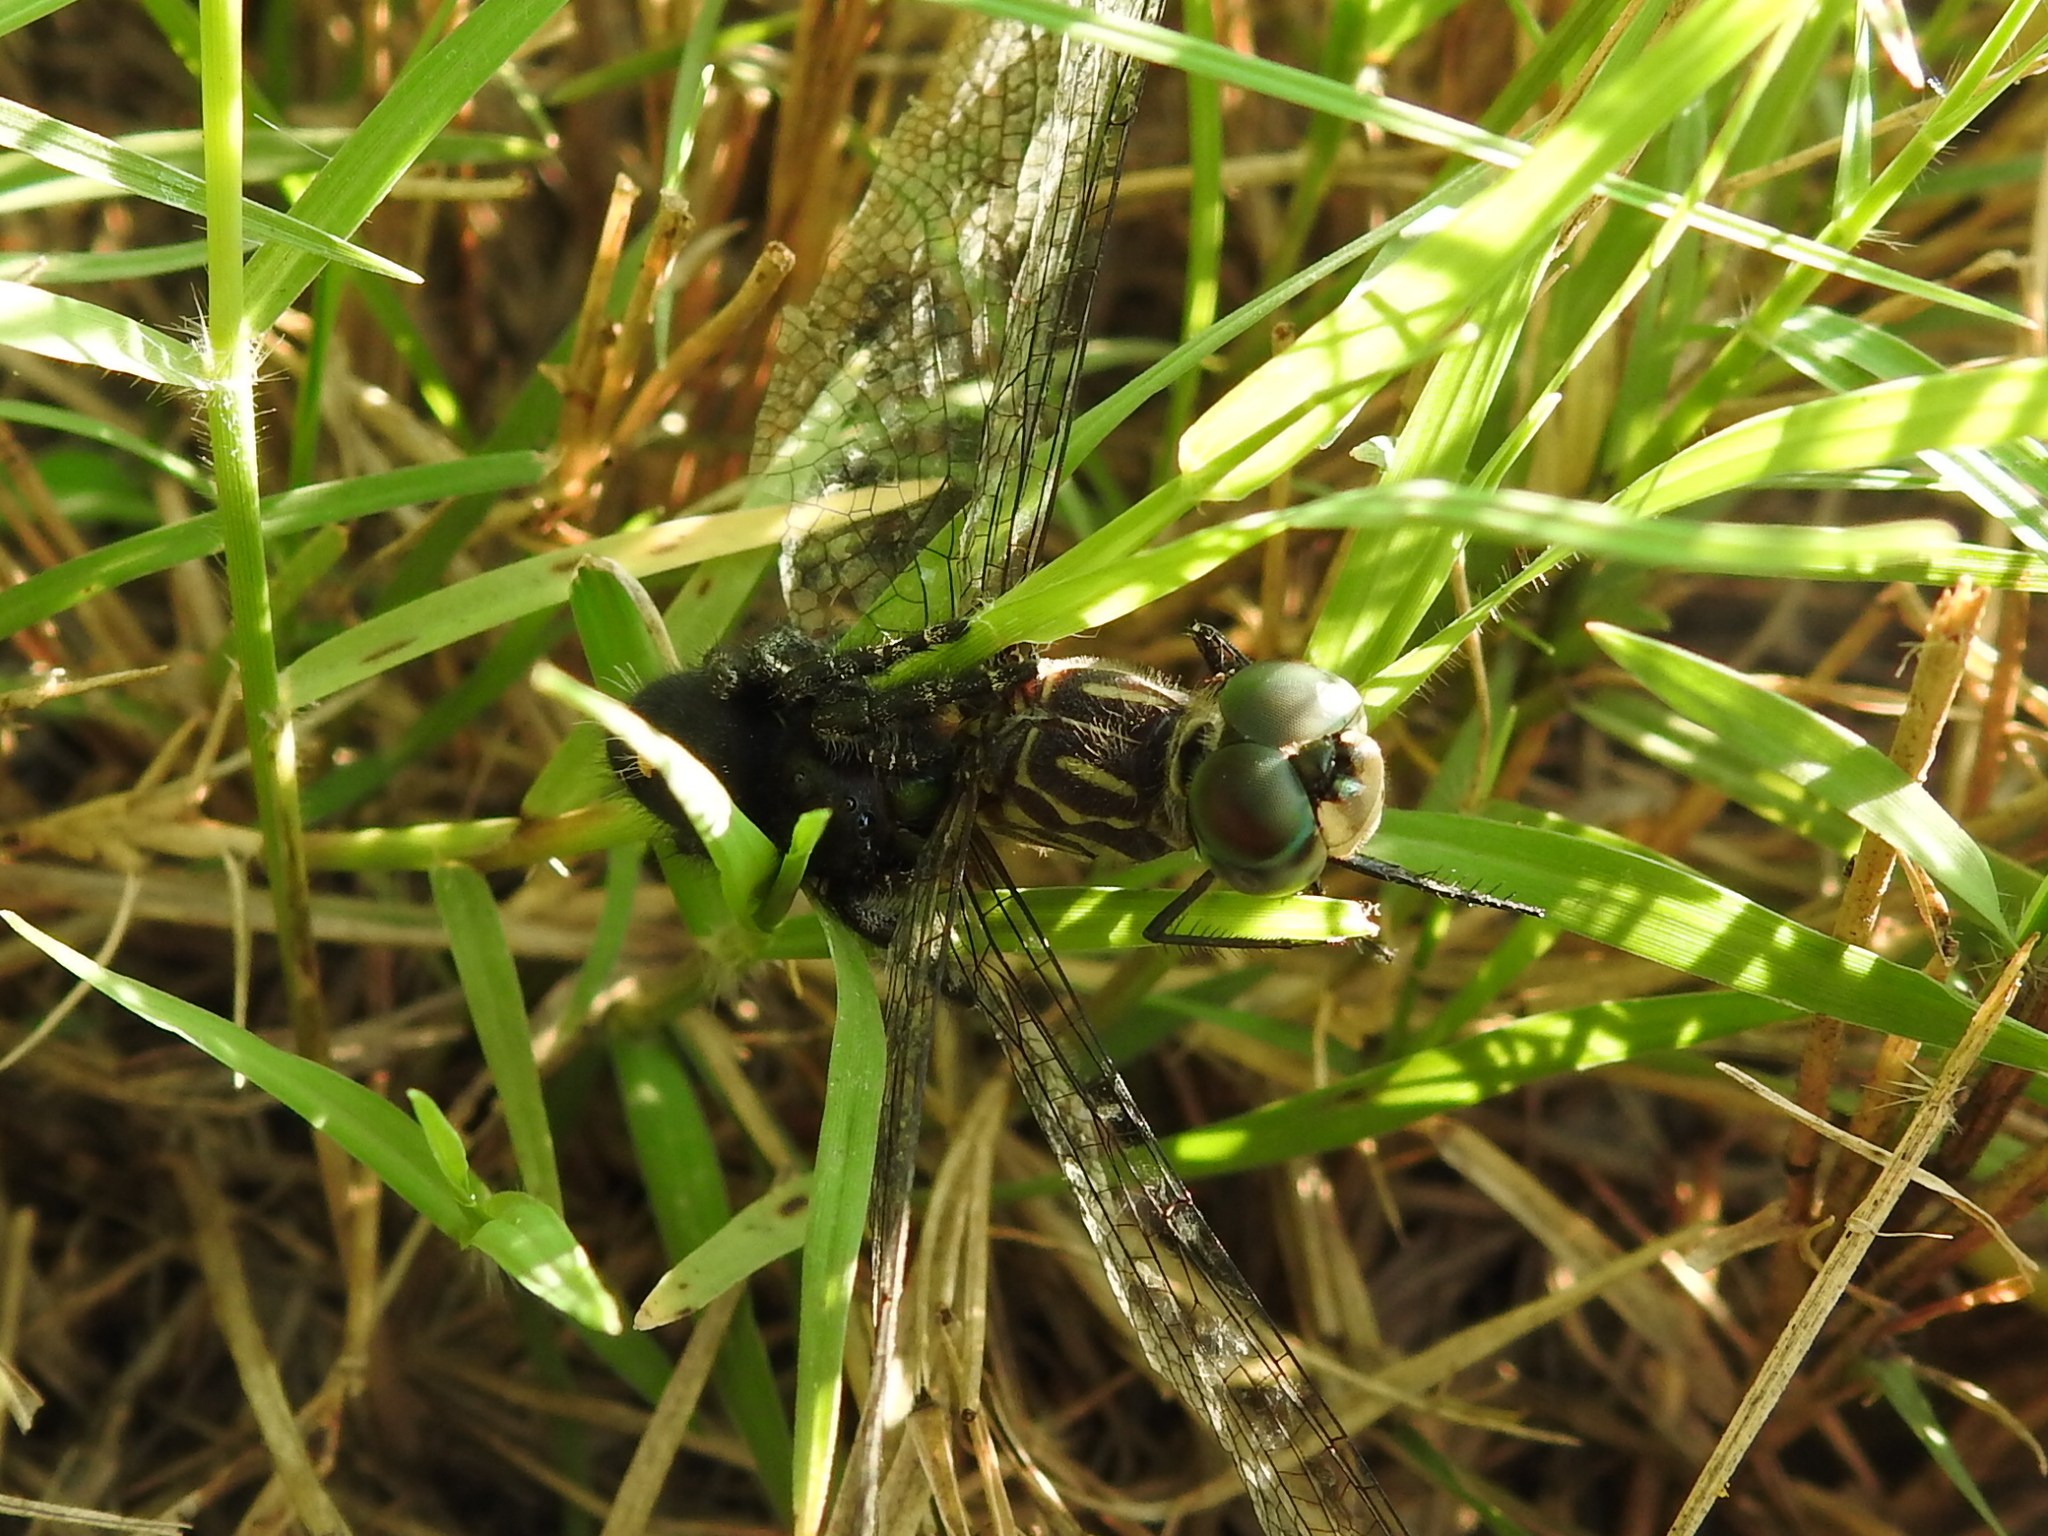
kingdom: Animalia
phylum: Arthropoda
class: Arachnida
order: Araneae
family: Salticidae
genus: Phidippus
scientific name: Phidippus audax
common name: Bold jumper
